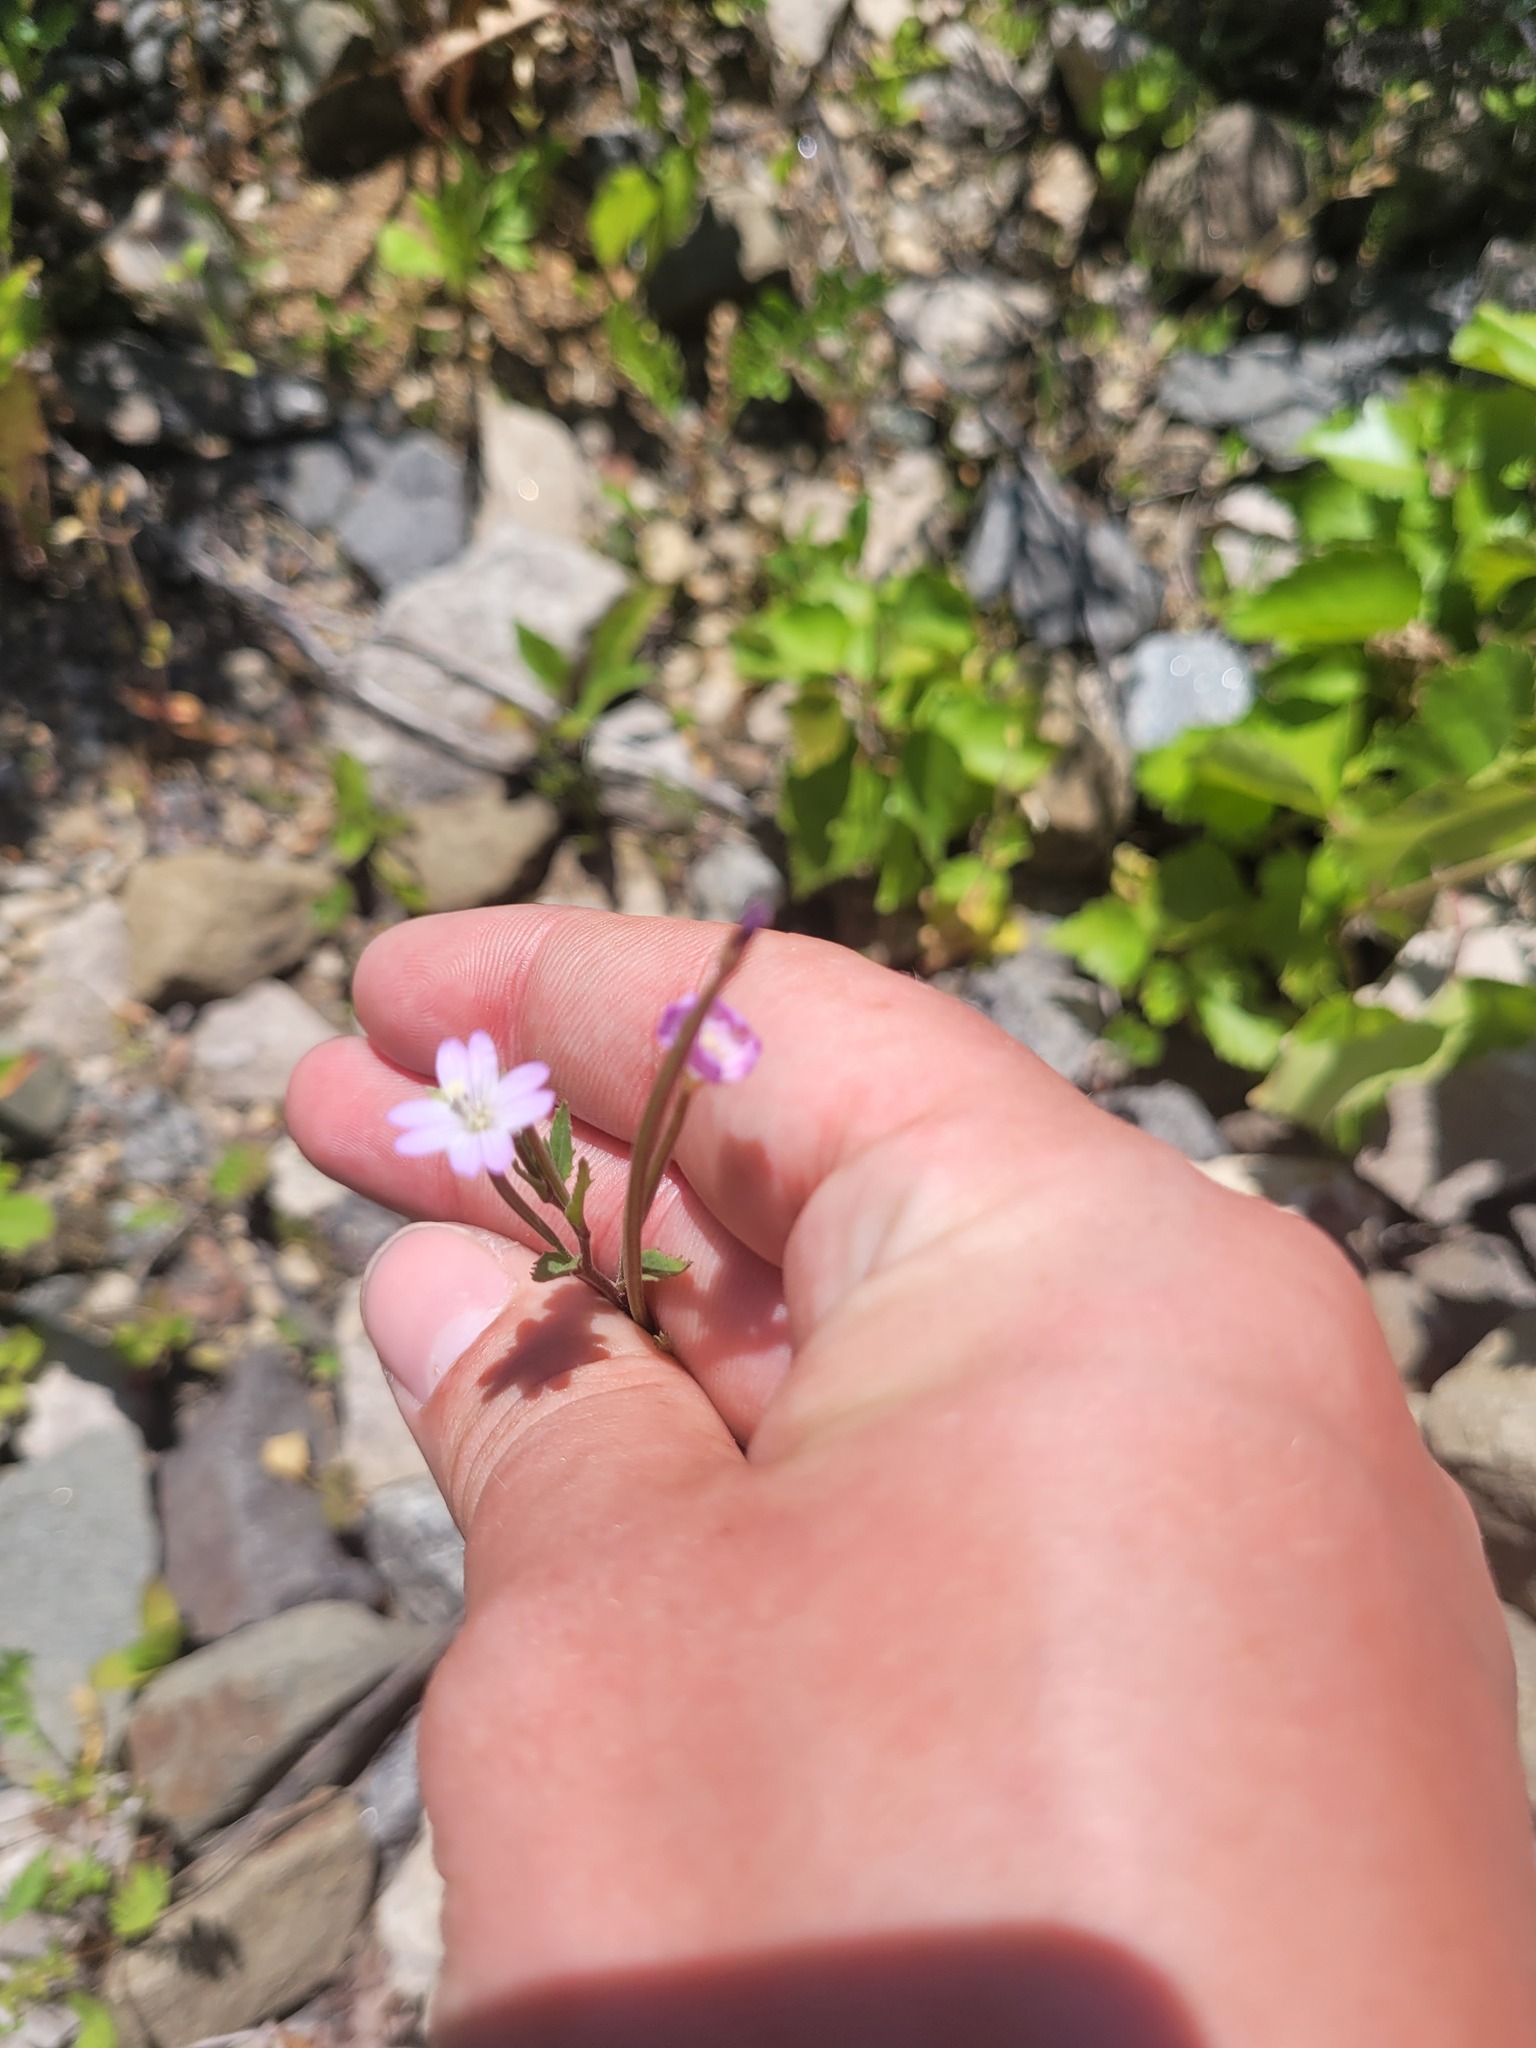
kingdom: Plantae
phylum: Tracheophyta
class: Magnoliopsida
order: Myrtales
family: Onagraceae
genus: Epilobium
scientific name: Epilobium montanum
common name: Broad-leaved willowherb
